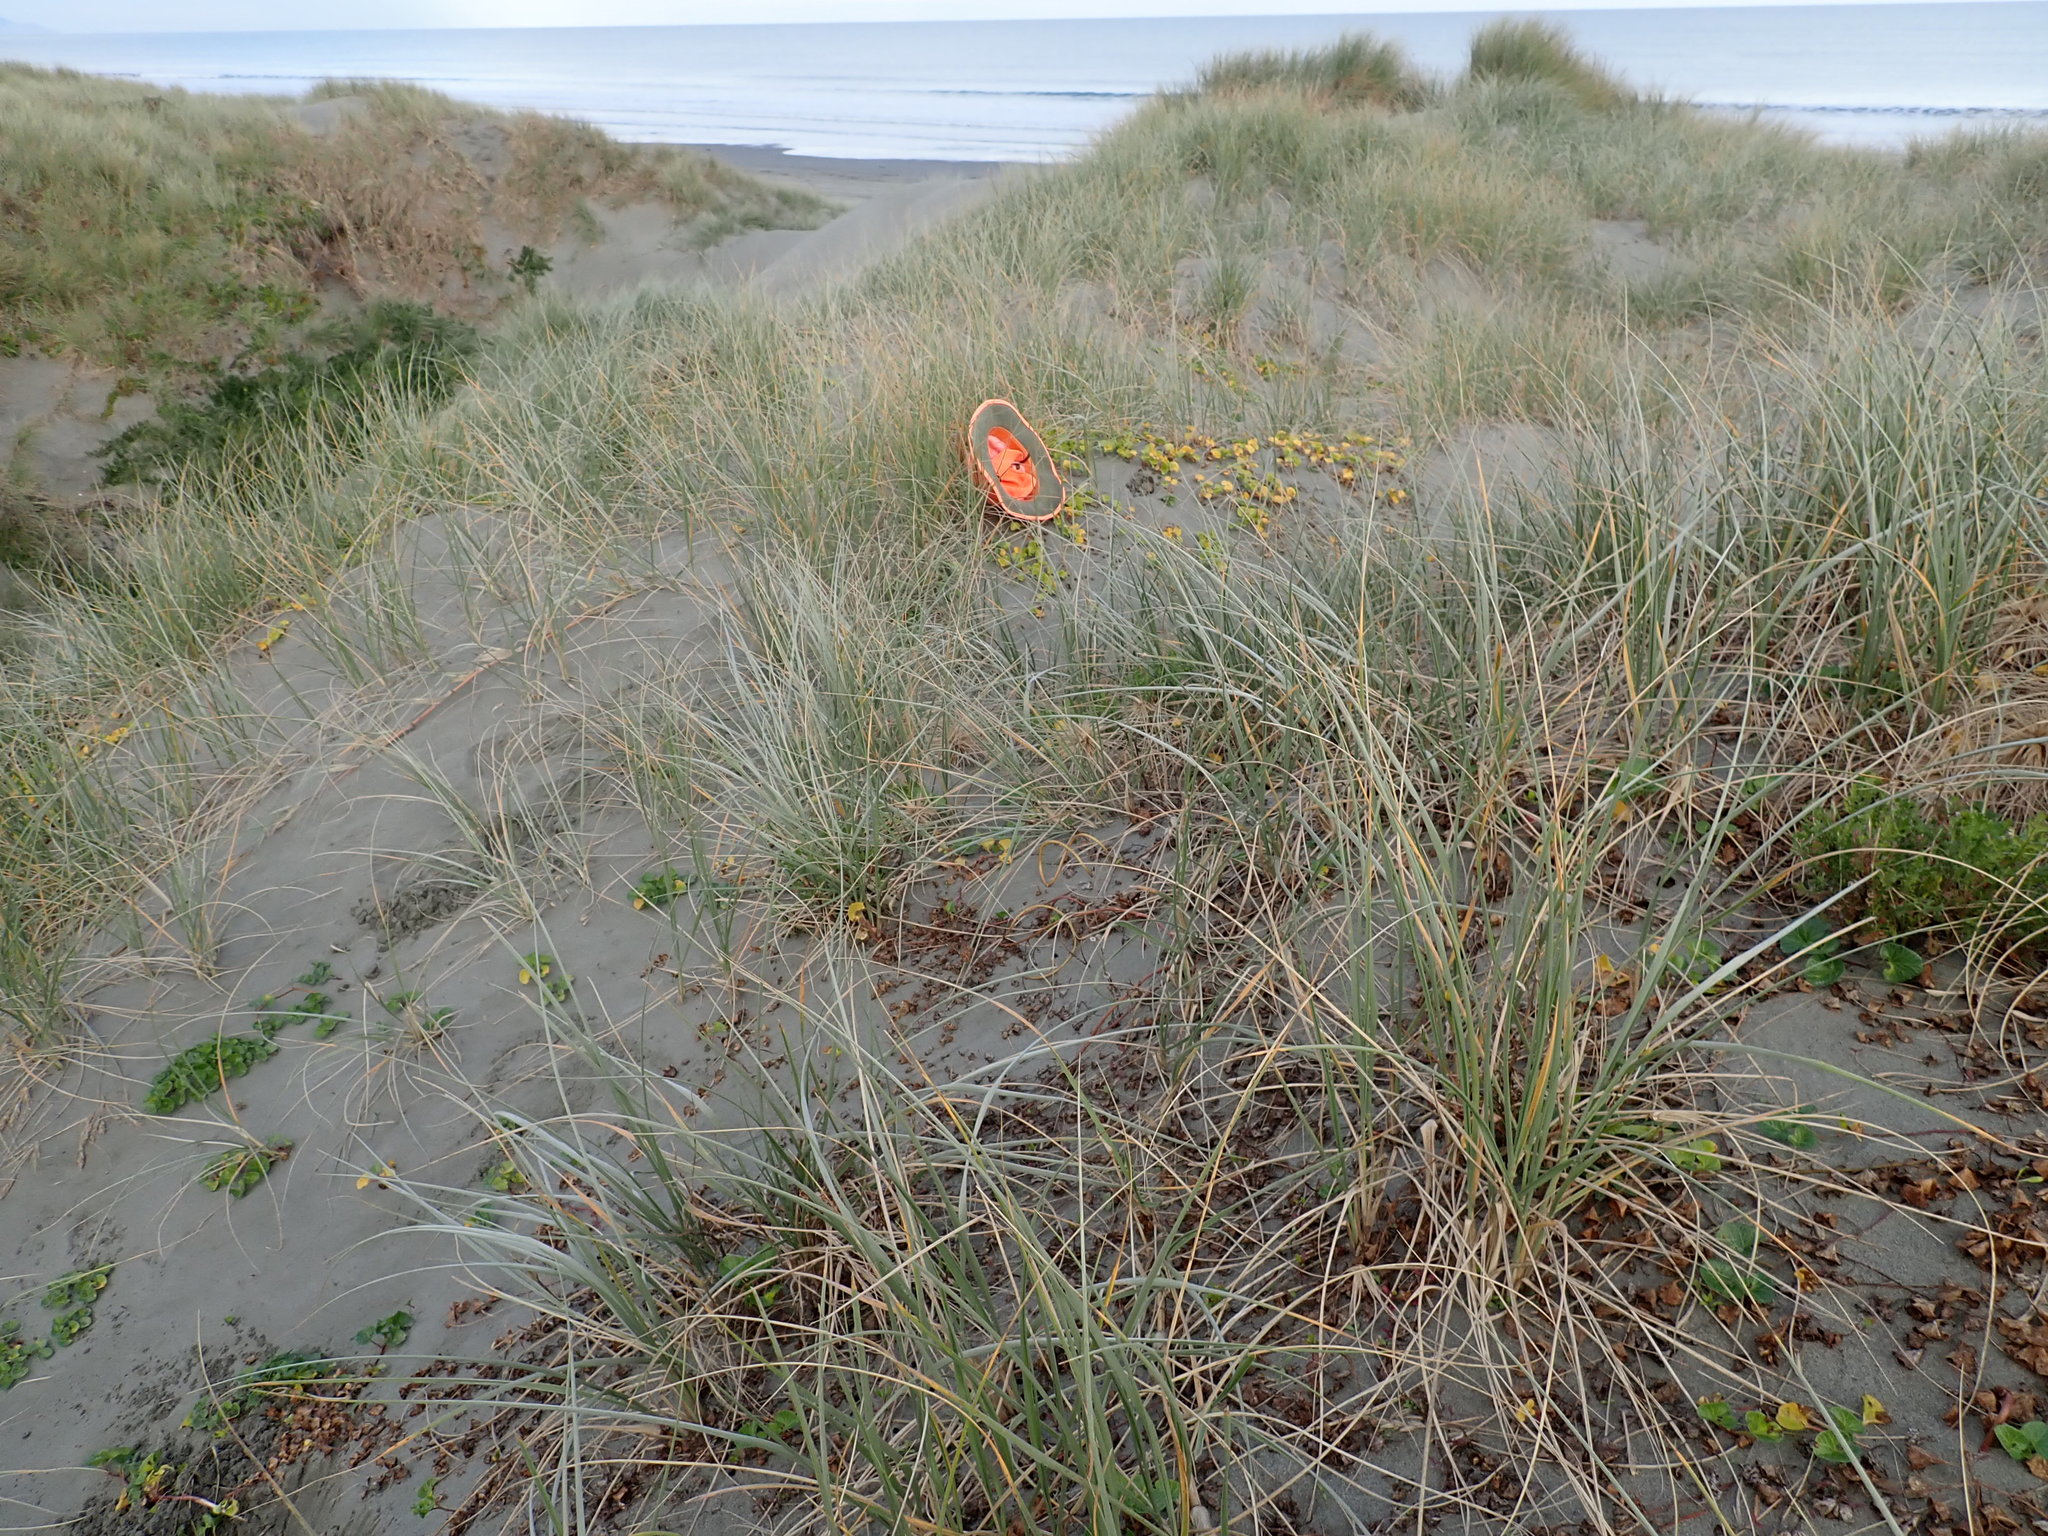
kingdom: Plantae
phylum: Tracheophyta
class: Magnoliopsida
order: Solanales
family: Convolvulaceae
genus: Calystegia
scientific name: Calystegia soldanella
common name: Sea bindweed
